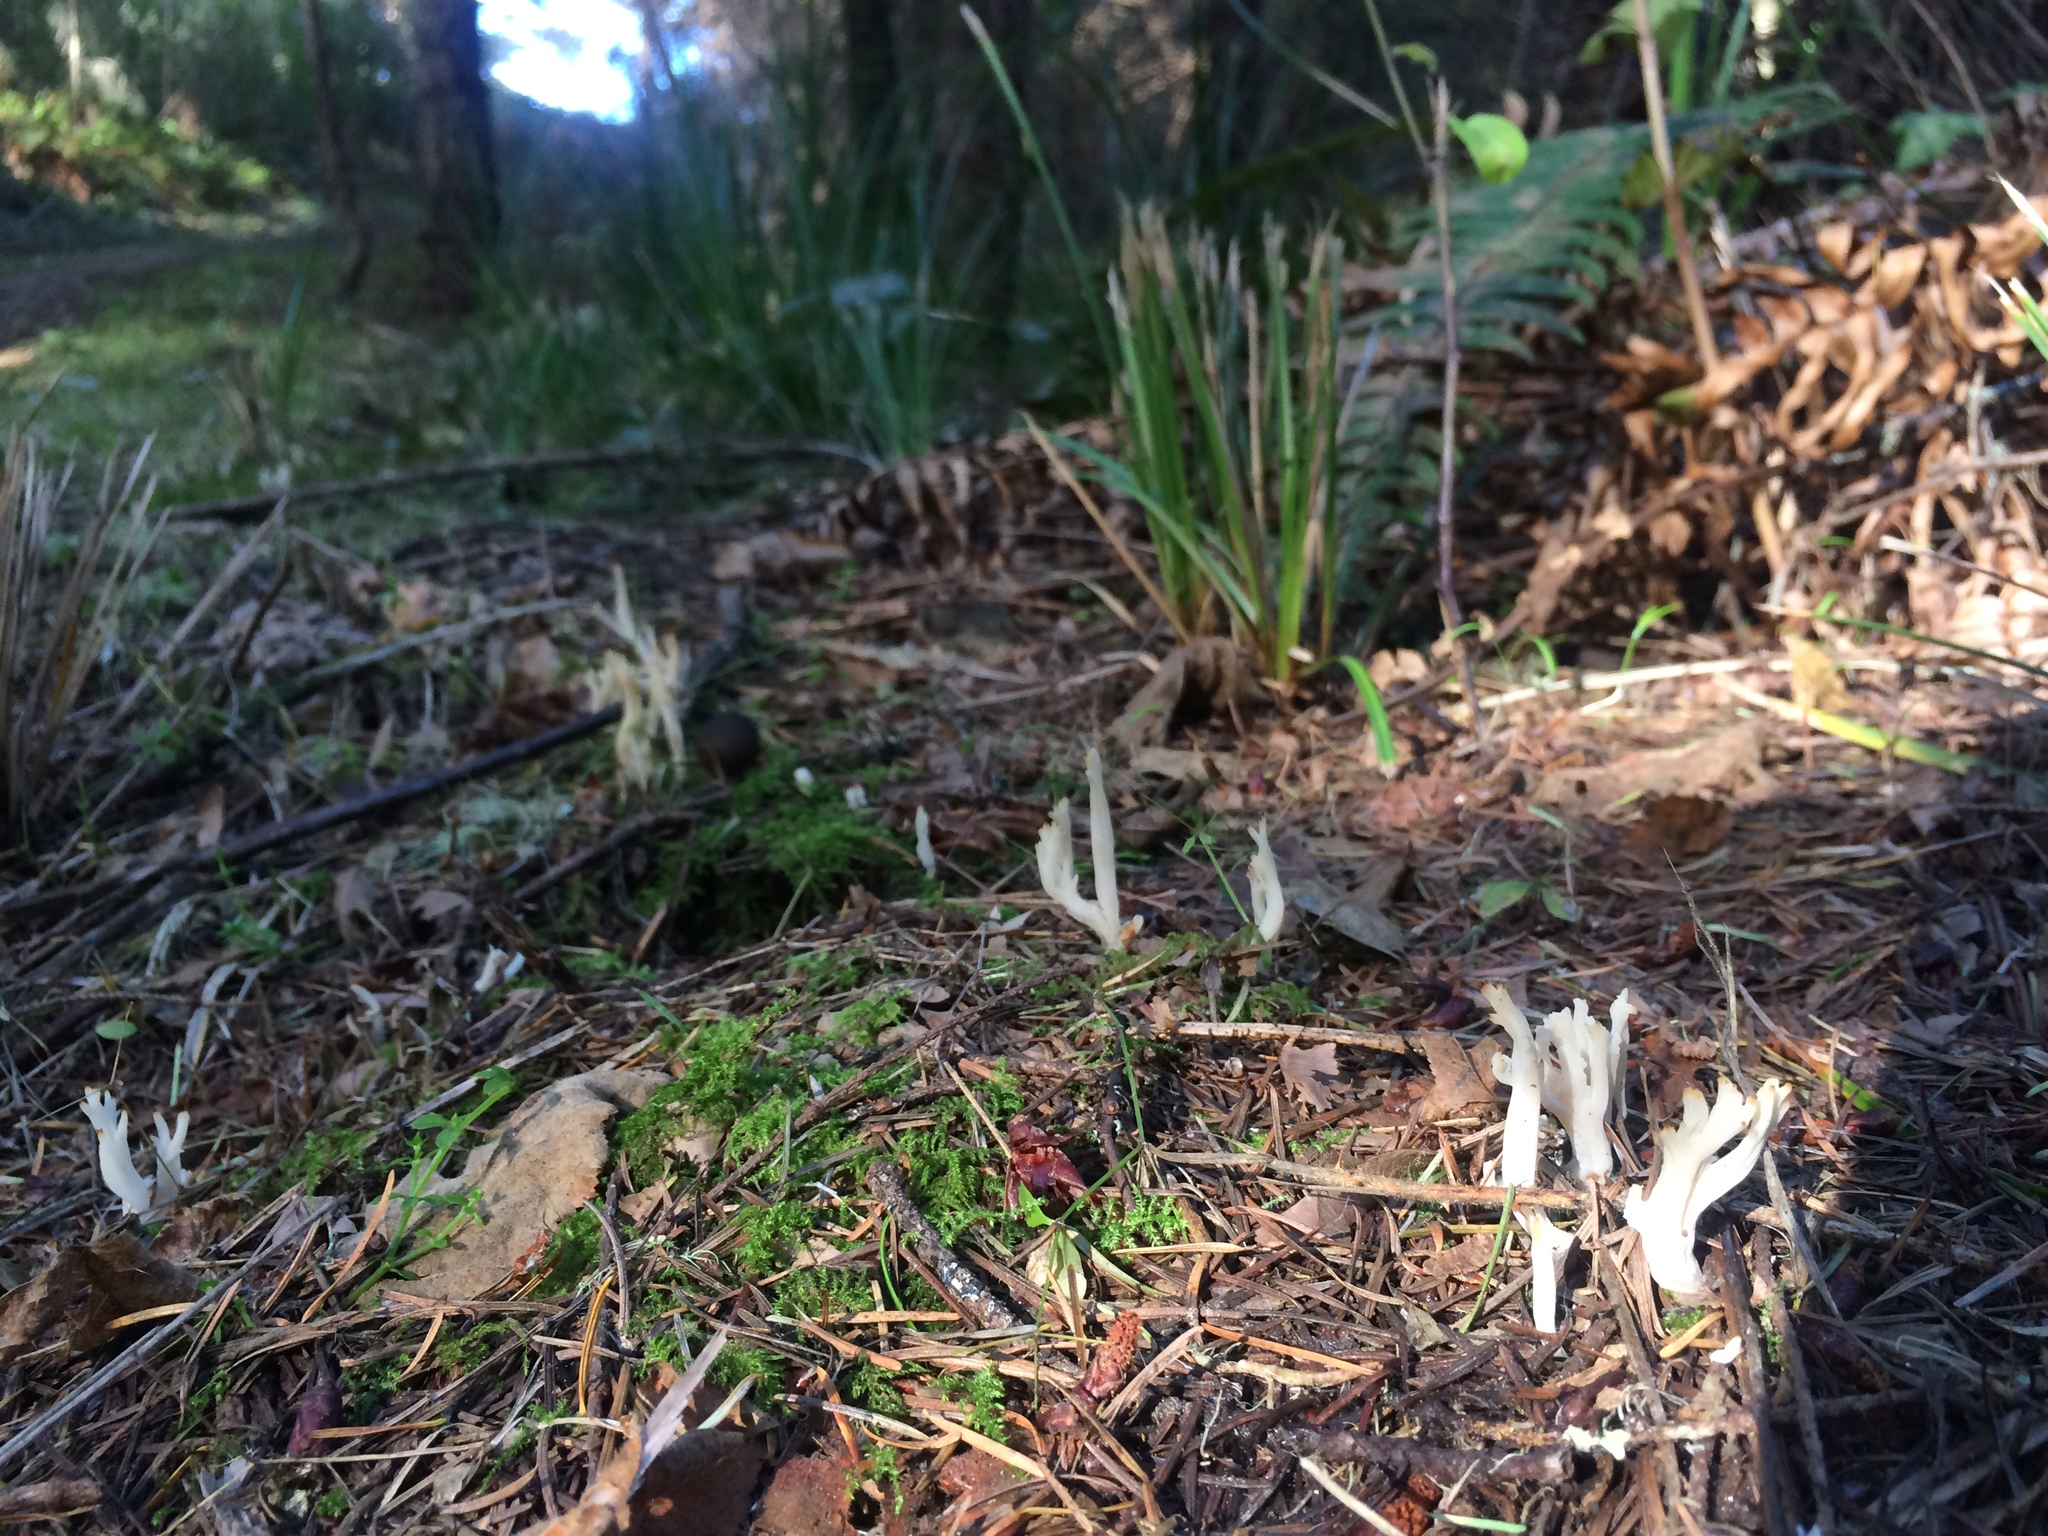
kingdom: Fungi
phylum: Basidiomycota
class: Agaricomycetes
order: Agaricales
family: Clavariaceae
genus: Clavaria
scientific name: Clavaria fragilis
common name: White spindles
